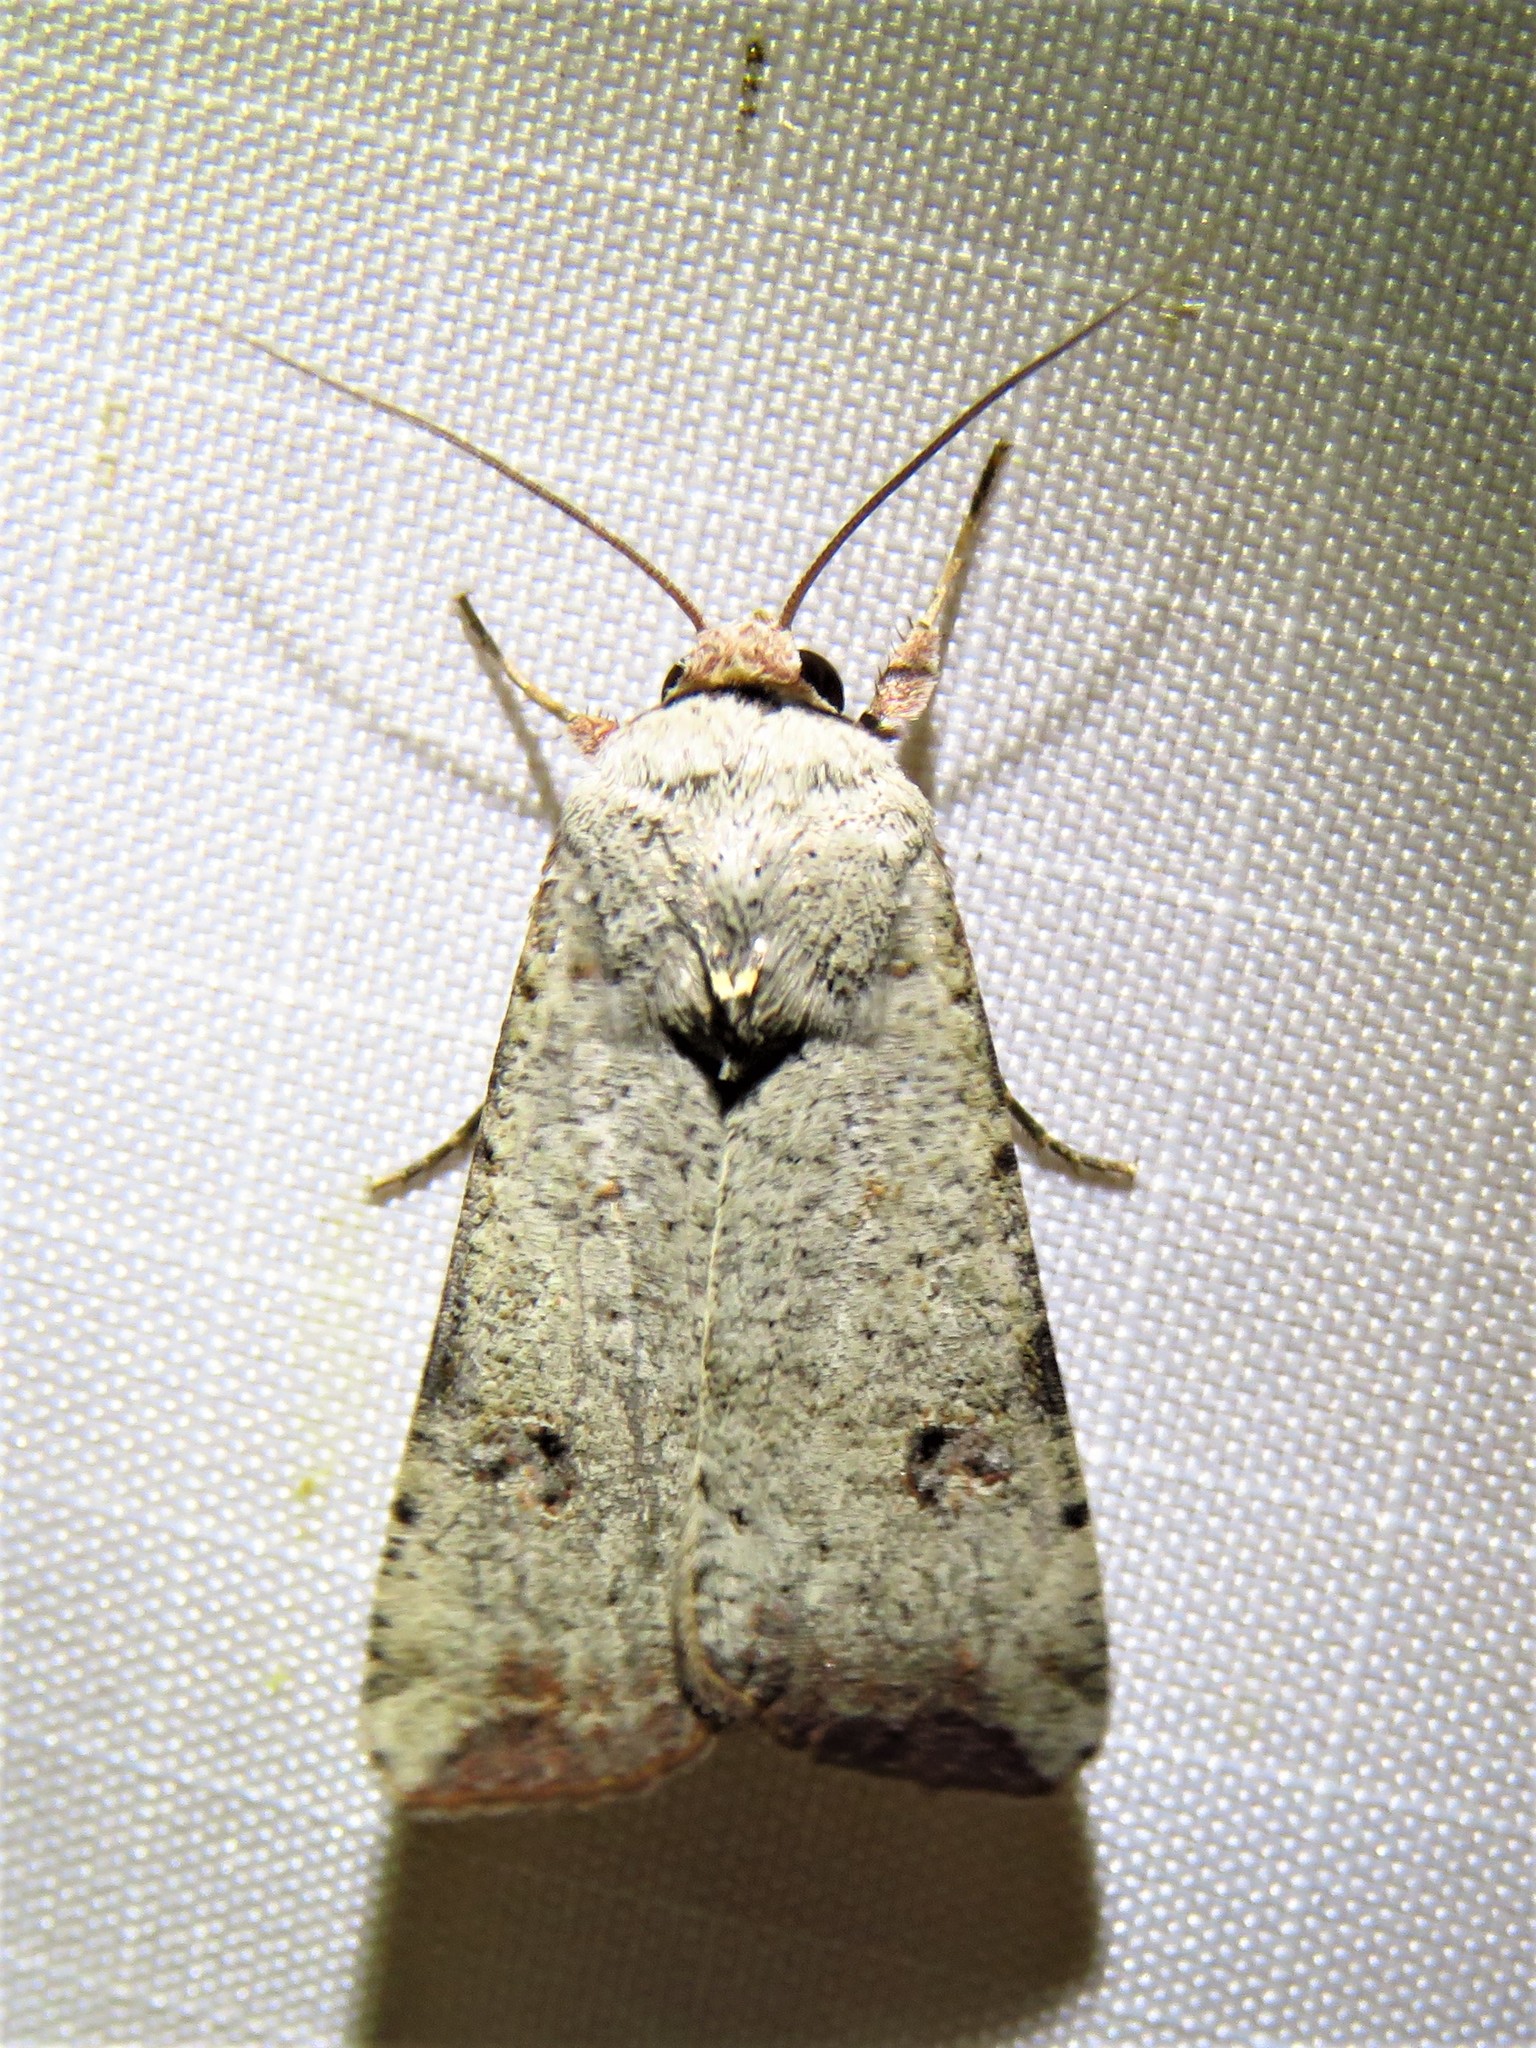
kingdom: Animalia
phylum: Arthropoda
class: Insecta
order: Lepidoptera
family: Noctuidae
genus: Anicla
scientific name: Anicla infecta
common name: Green cutworm
